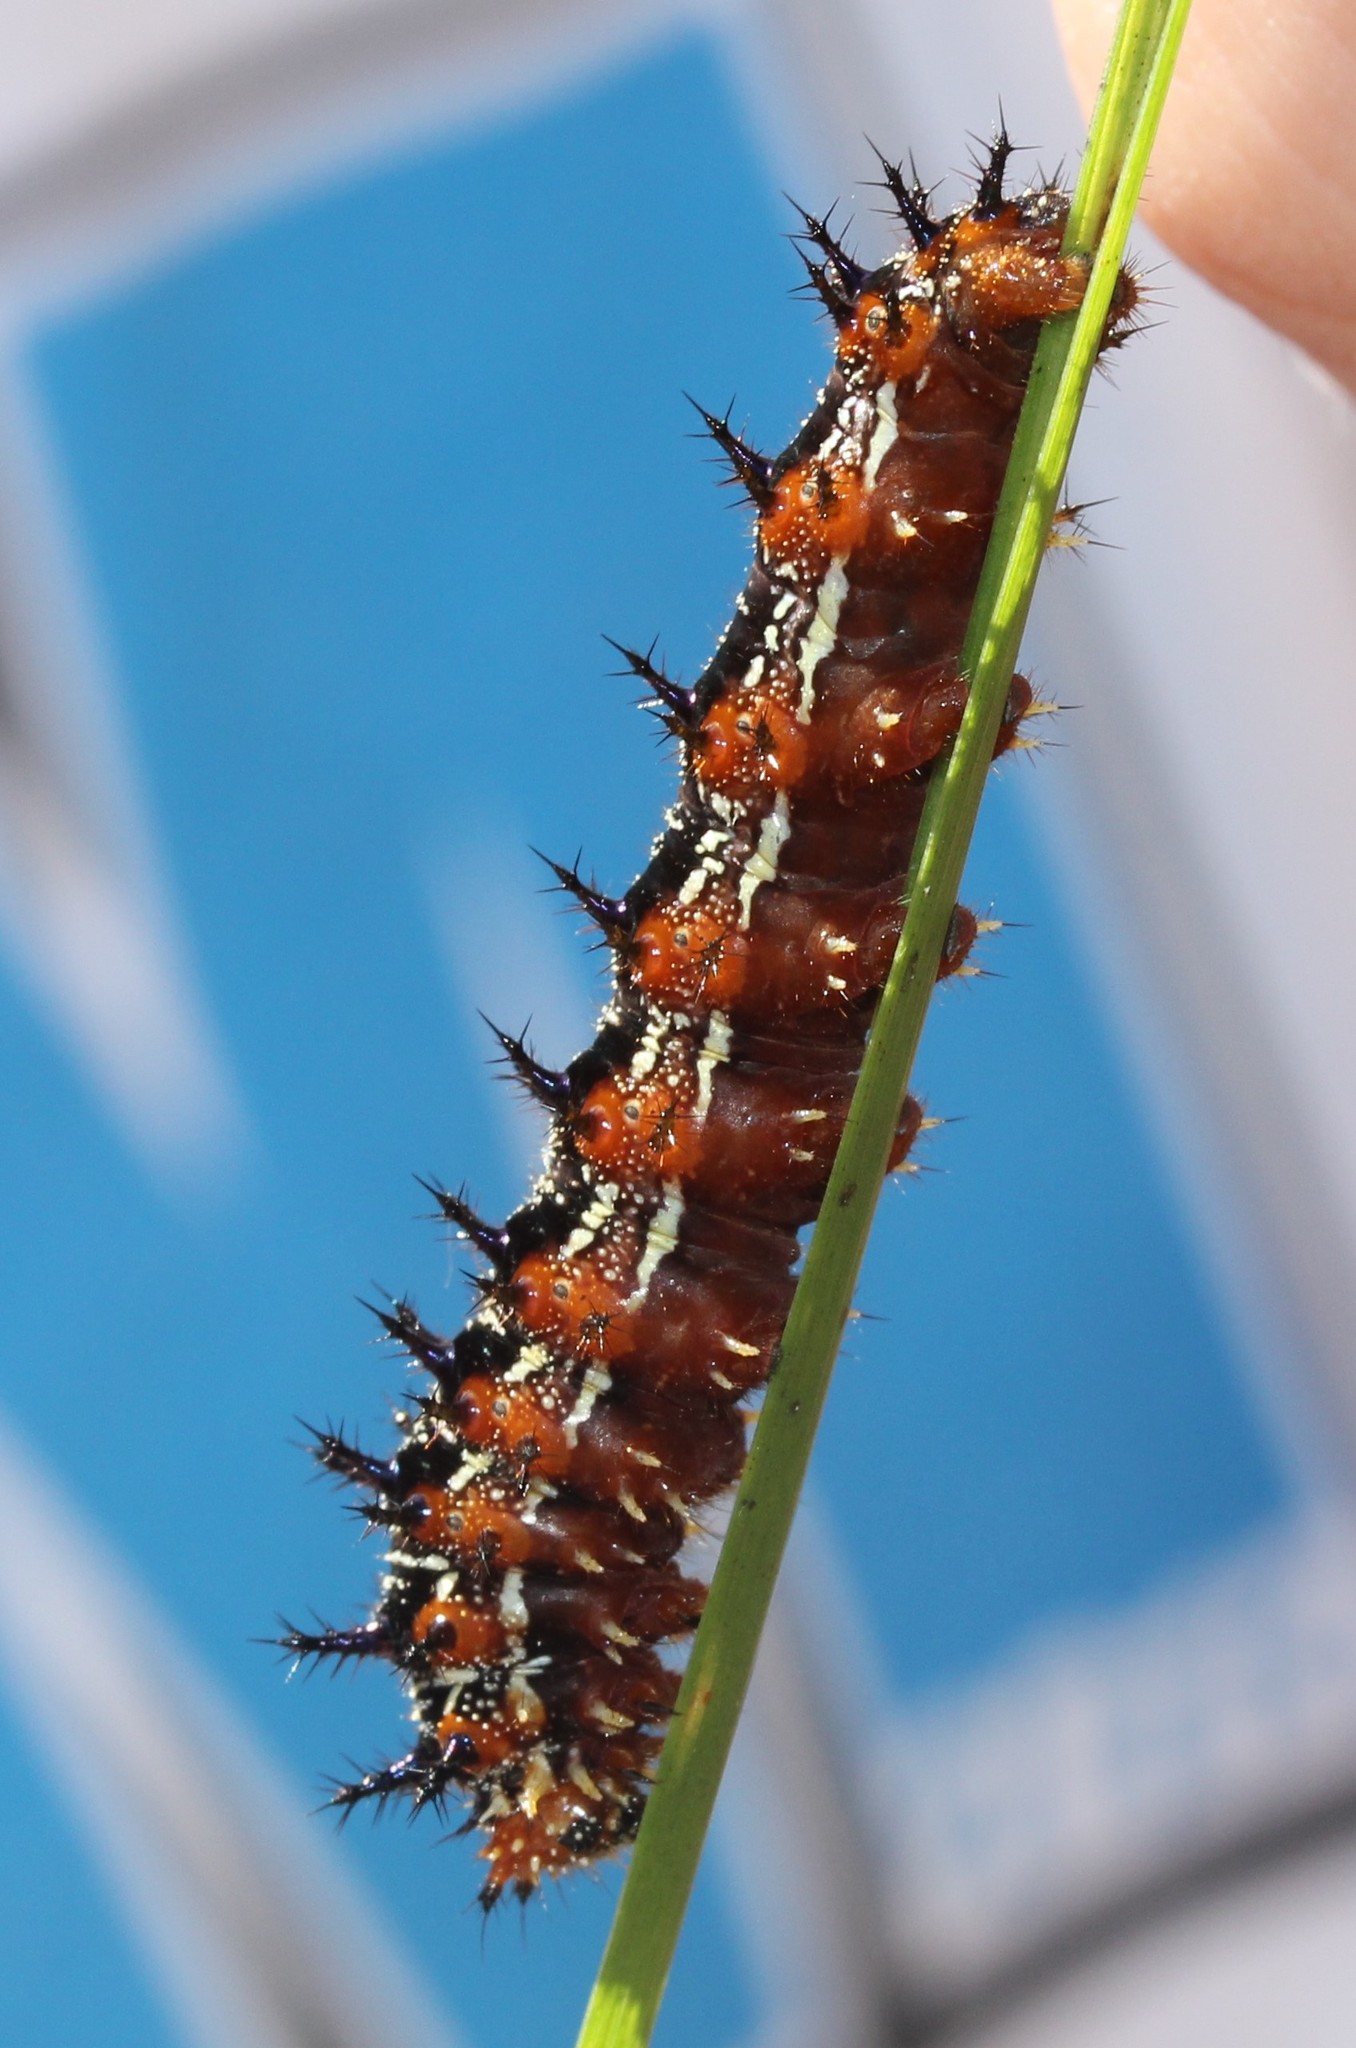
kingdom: Animalia
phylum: Arthropoda
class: Insecta
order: Lepidoptera
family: Nymphalidae
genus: Junonia
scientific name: Junonia coenia
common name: Common buckeye
